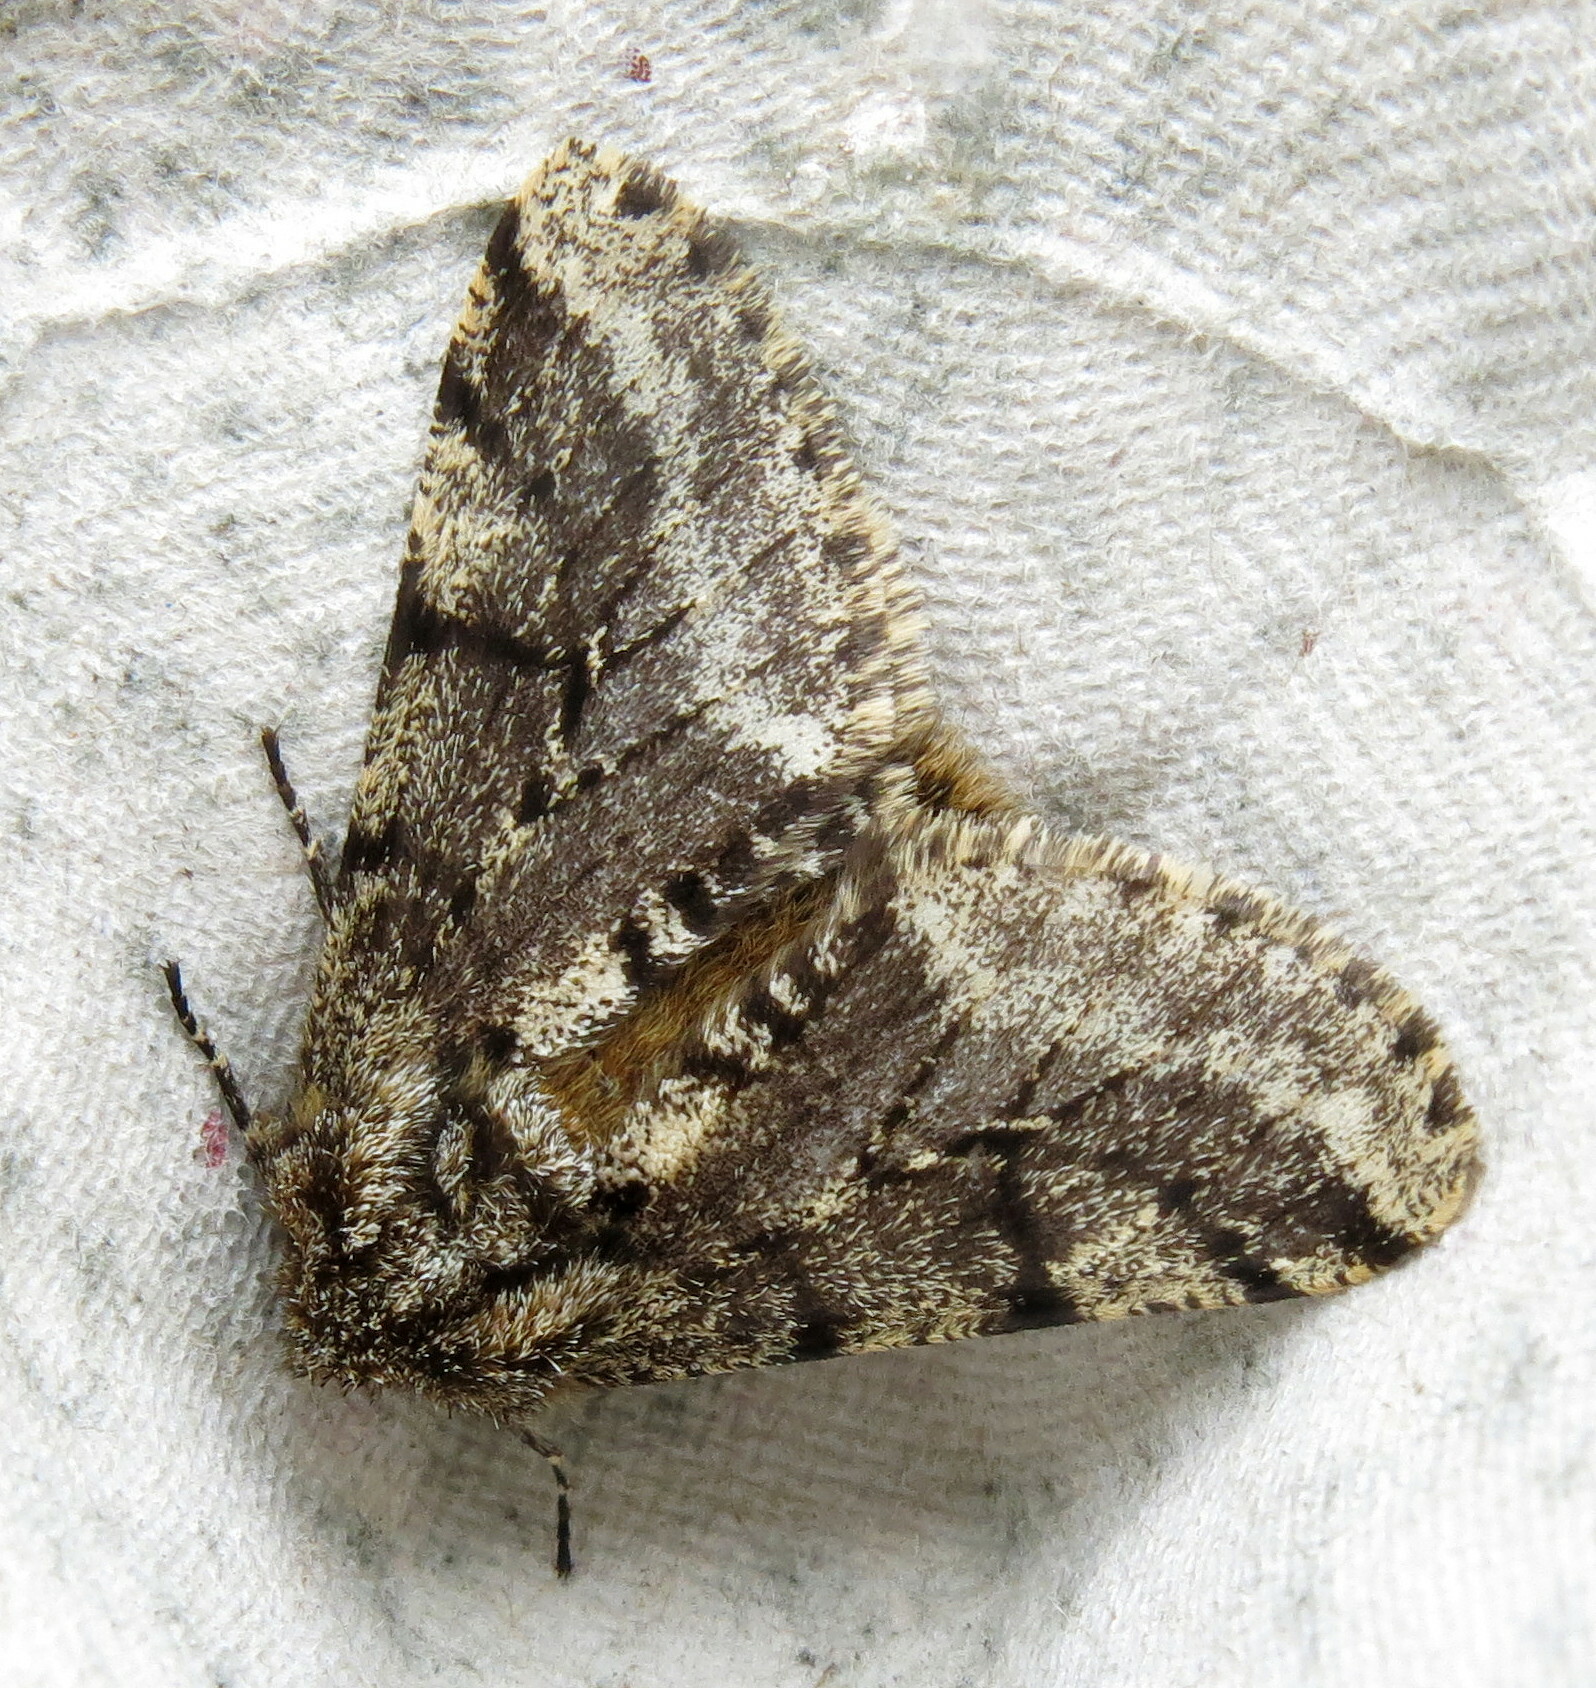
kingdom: Animalia
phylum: Arthropoda
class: Insecta
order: Lepidoptera
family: Geometridae
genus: Lycia
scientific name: Lycia hirtaria
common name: Brindled beauty
